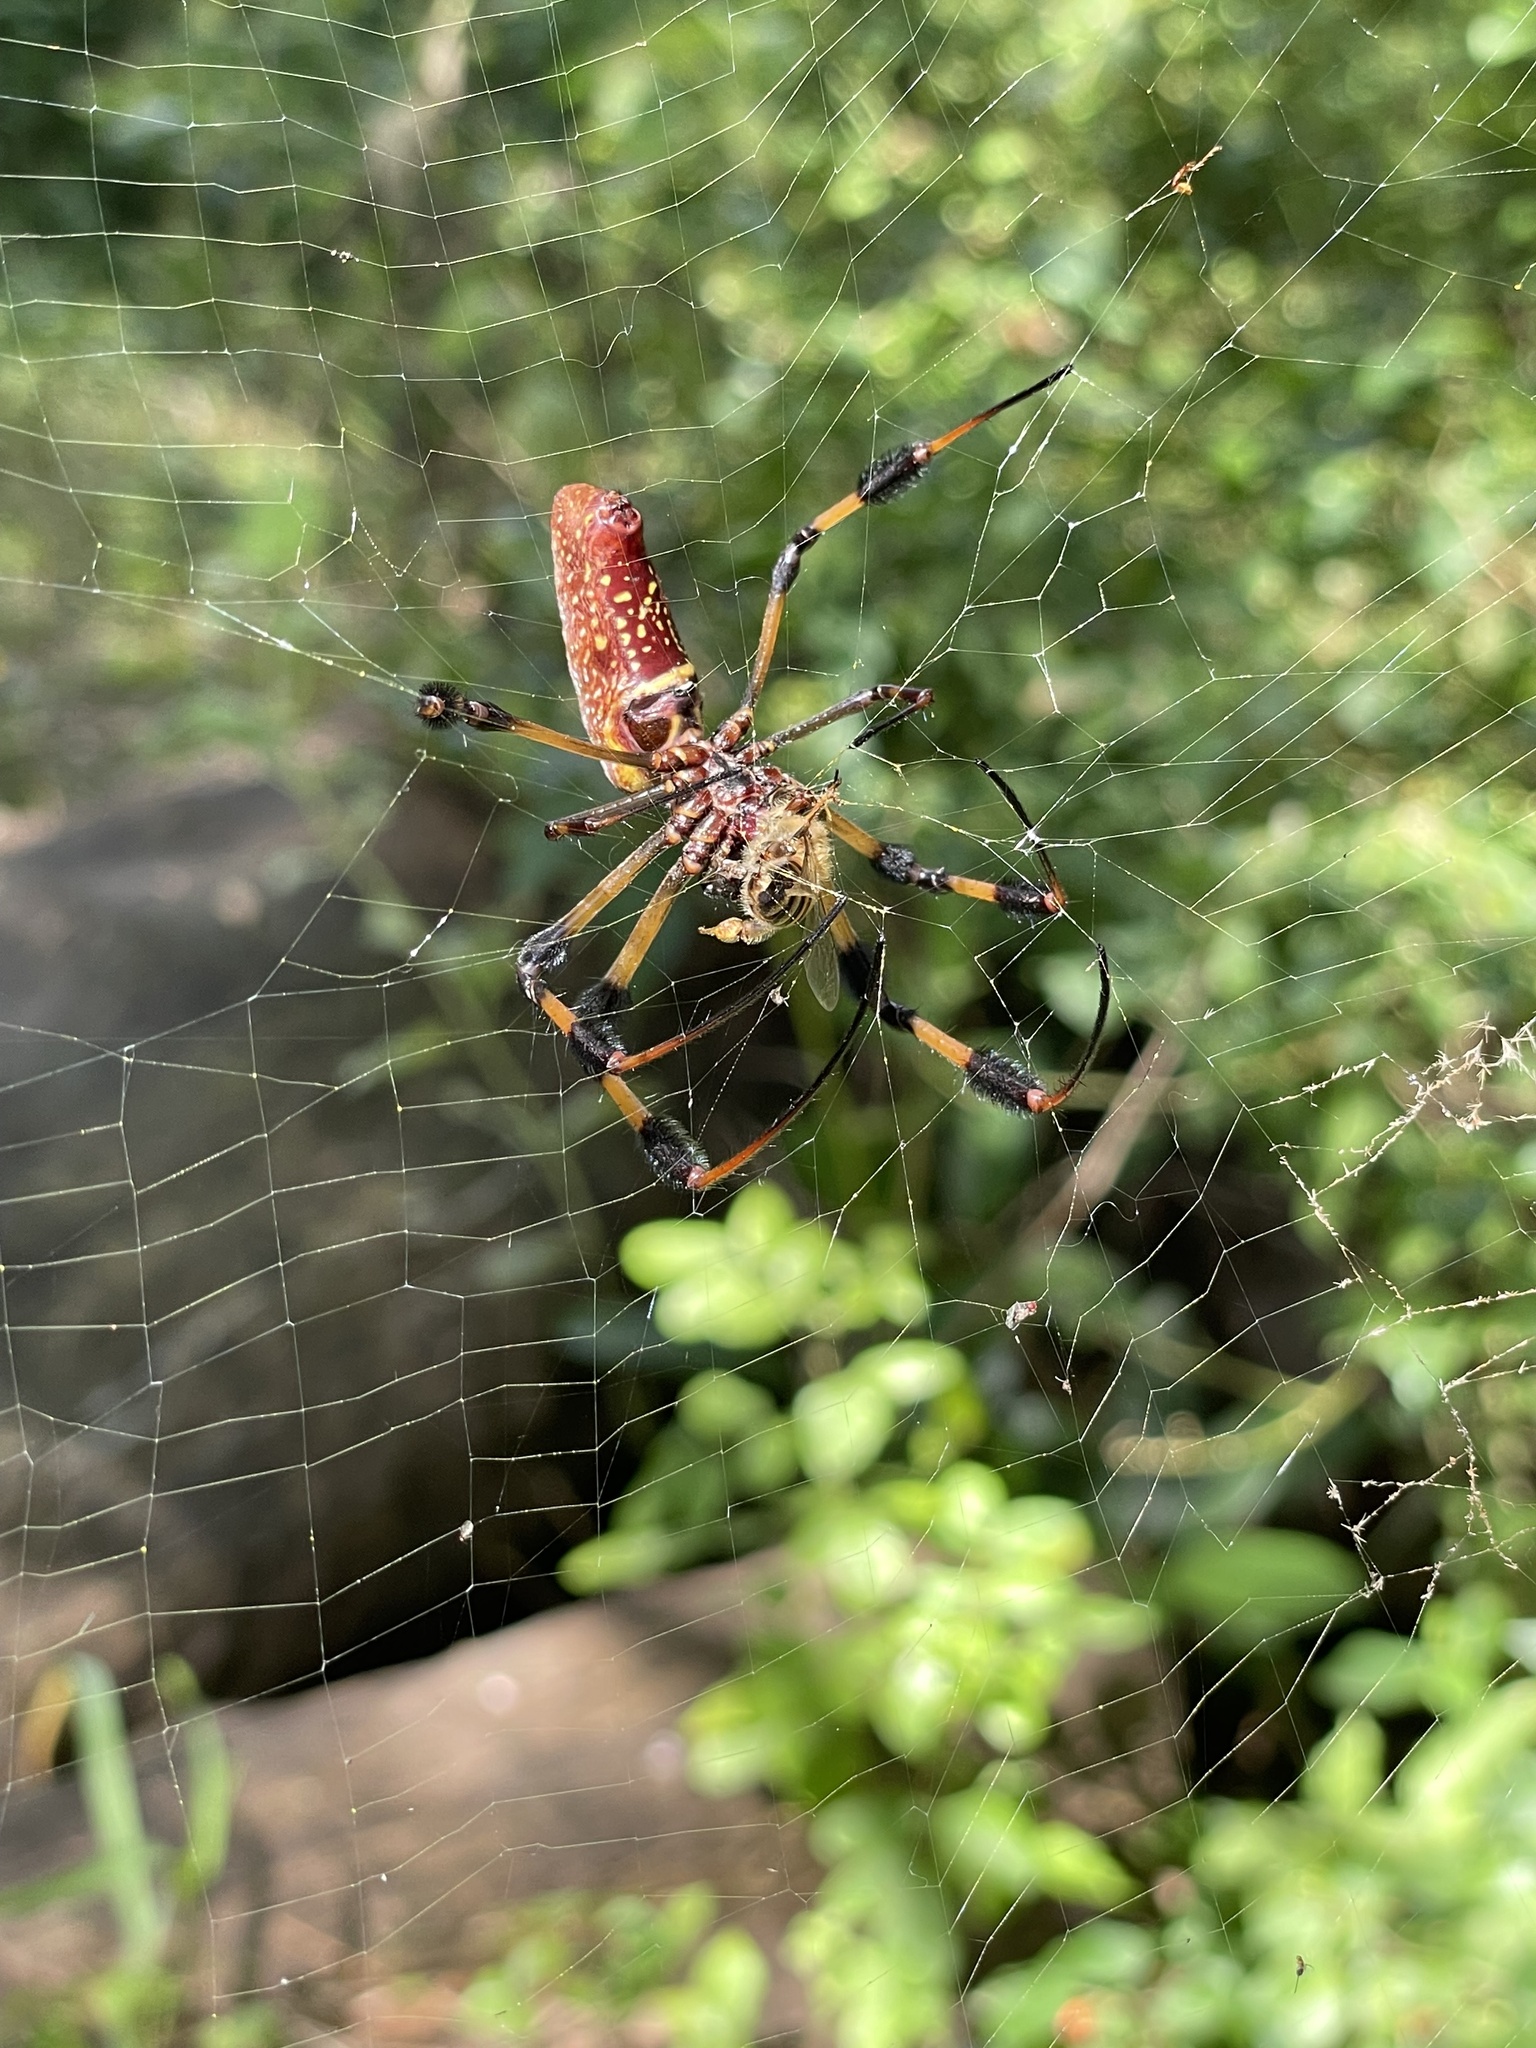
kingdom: Animalia
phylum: Arthropoda
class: Arachnida
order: Araneae
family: Araneidae
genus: Trichonephila
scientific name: Trichonephila clavipes
